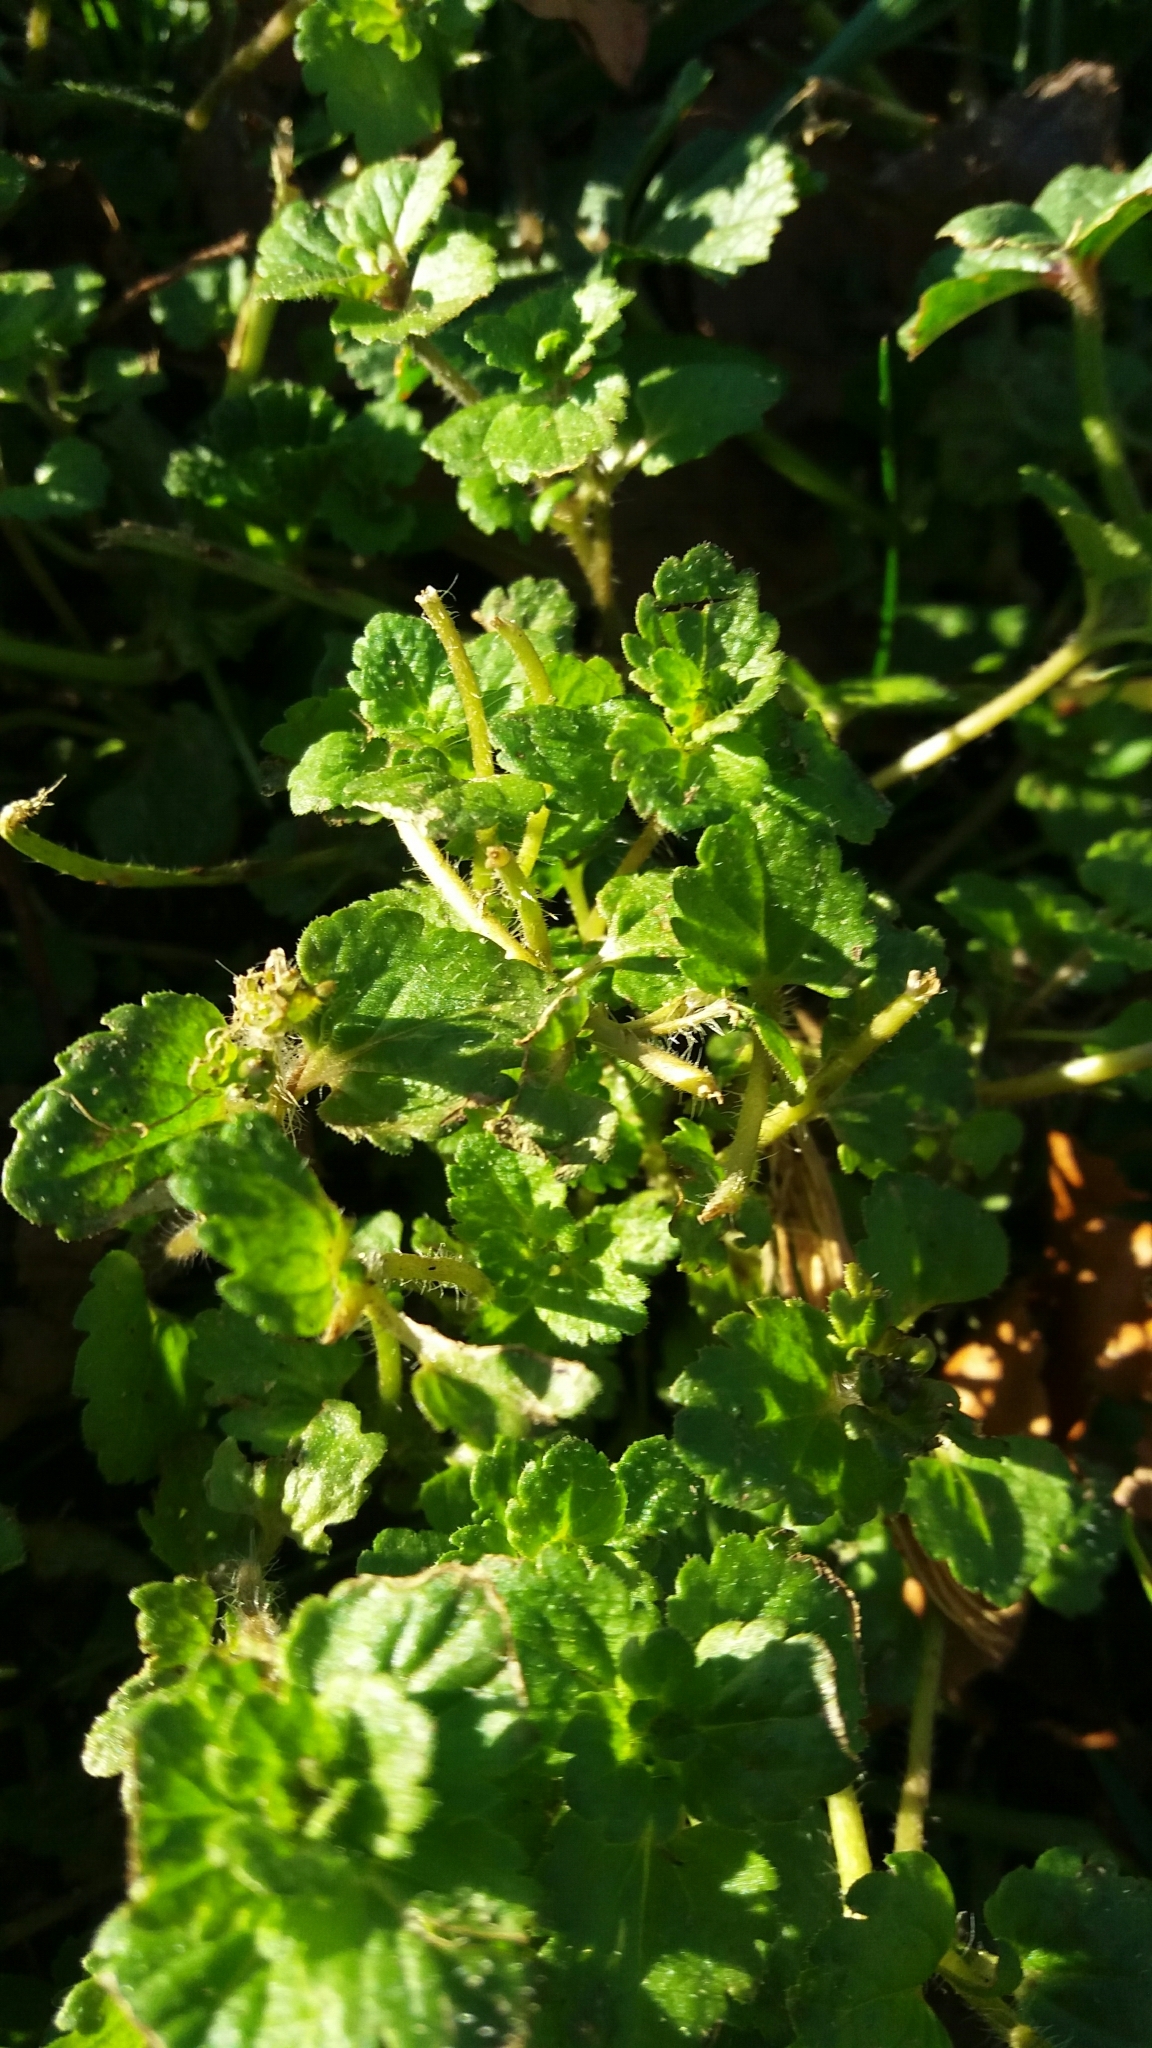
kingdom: Plantae
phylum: Tracheophyta
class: Magnoliopsida
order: Lamiales
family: Plantaginaceae
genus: Veronica
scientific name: Veronica persica
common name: Common field-speedwell
